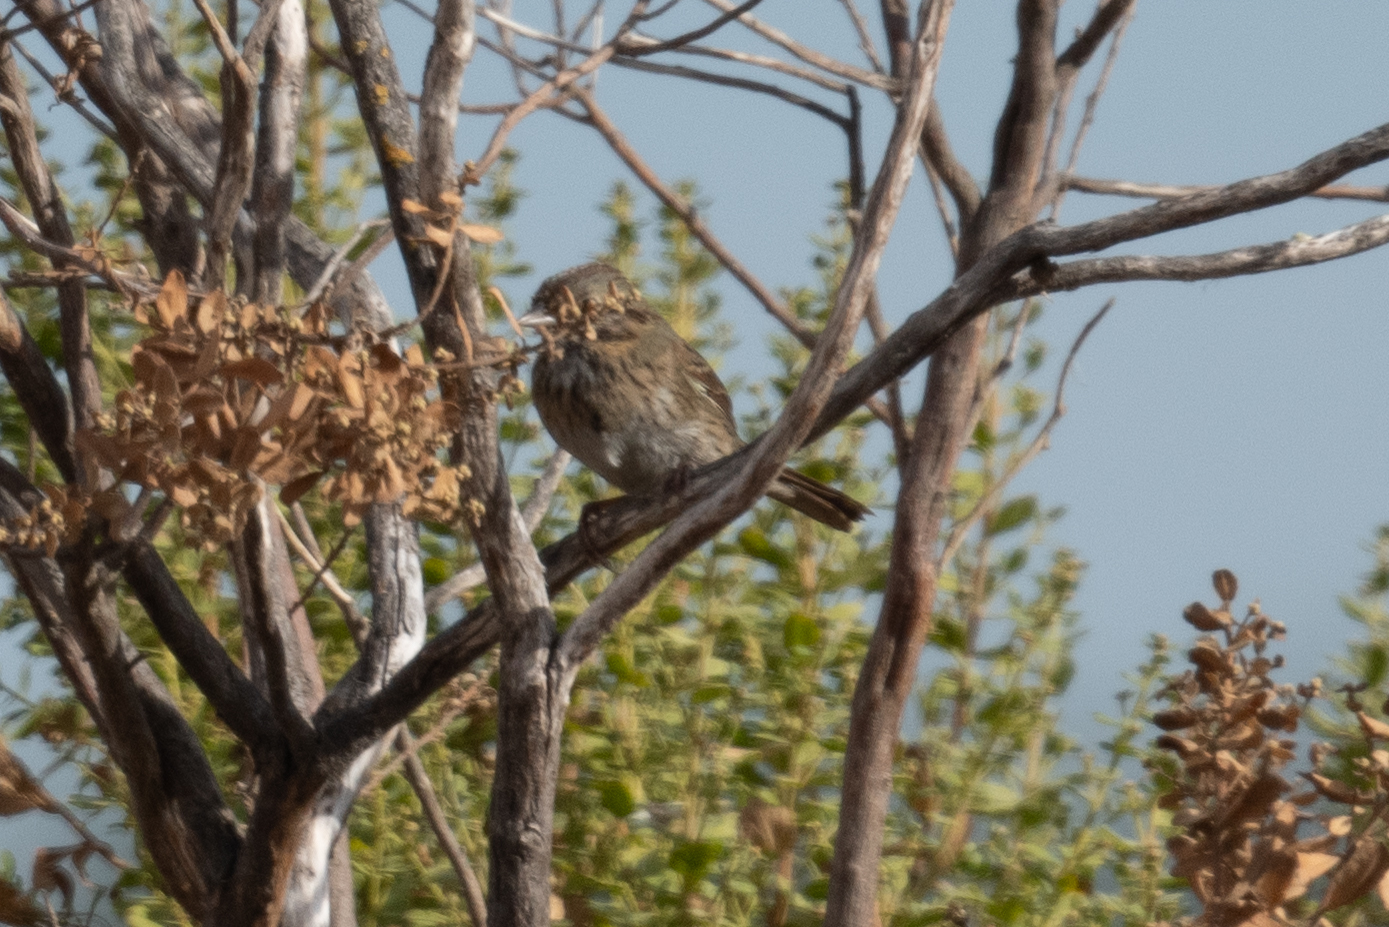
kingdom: Animalia
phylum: Chordata
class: Aves
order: Passeriformes
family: Passerellidae
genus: Melospiza
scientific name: Melospiza lincolnii
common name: Lincoln's sparrow
